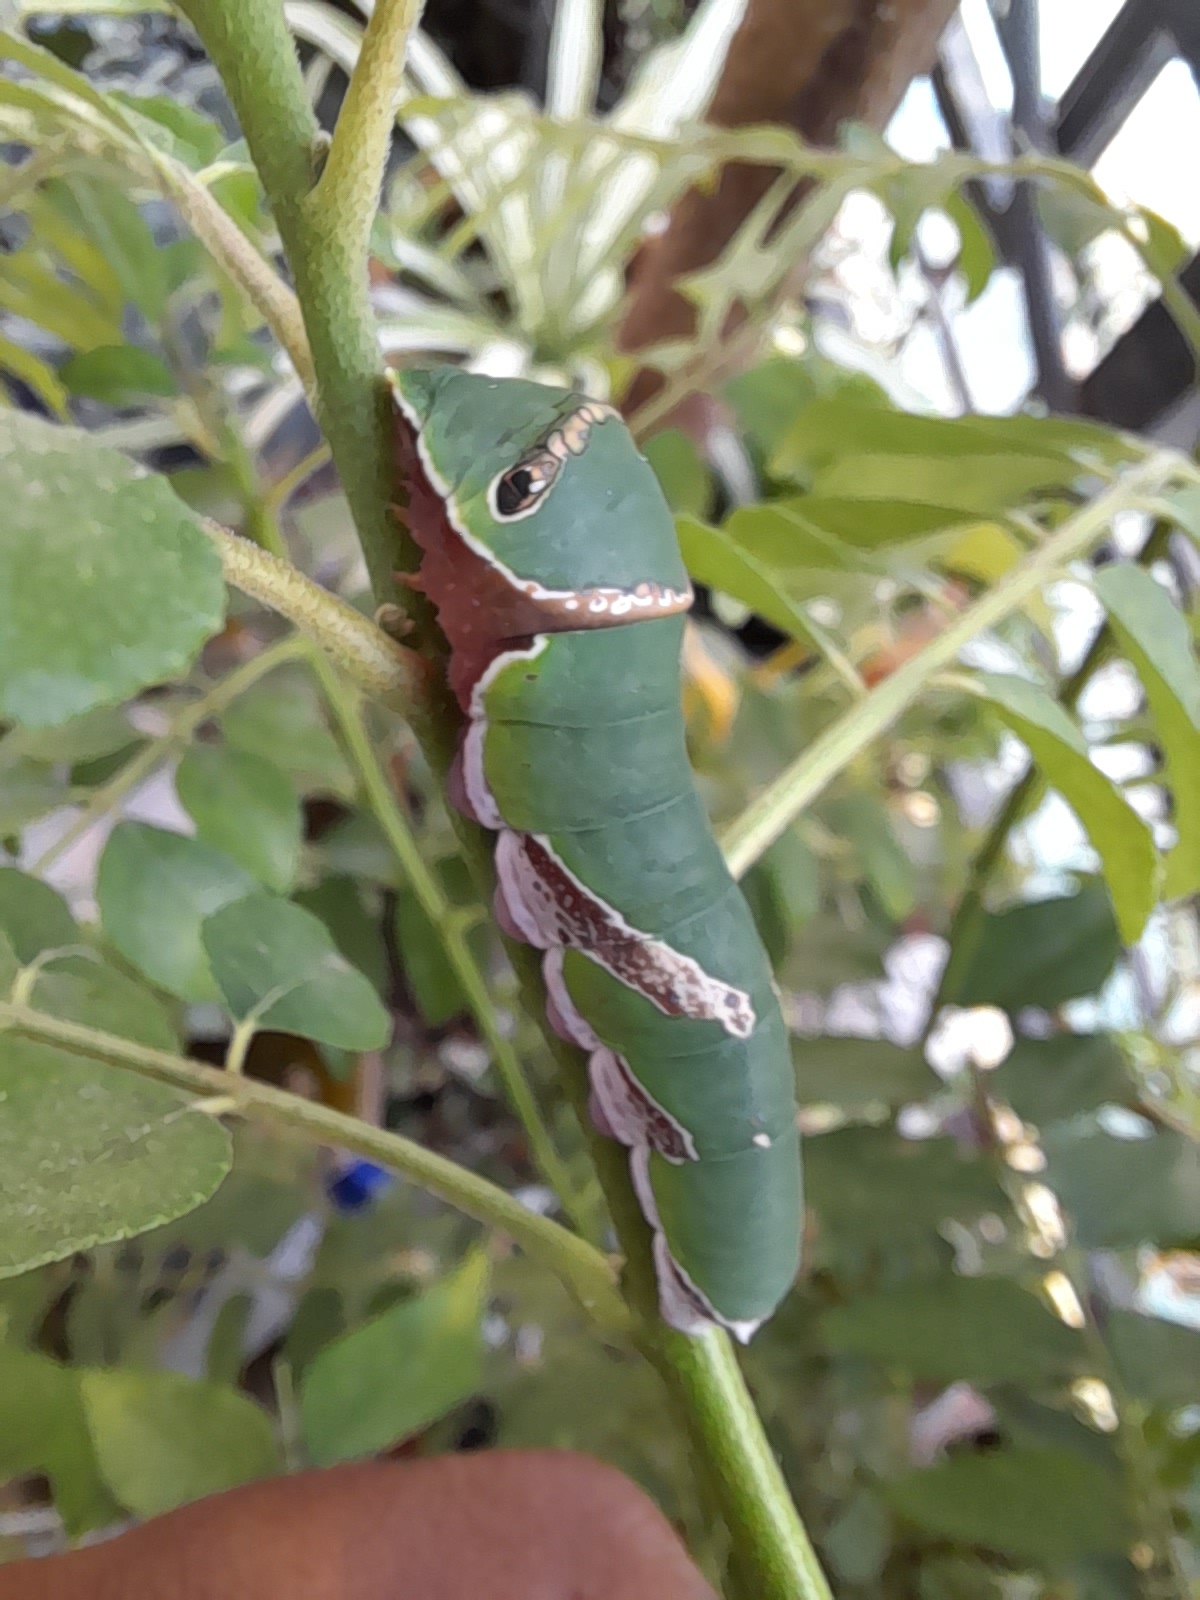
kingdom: Animalia
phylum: Arthropoda
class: Insecta
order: Lepidoptera
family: Papilionidae
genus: Papilio
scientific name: Papilio polytes
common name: Common mormon
